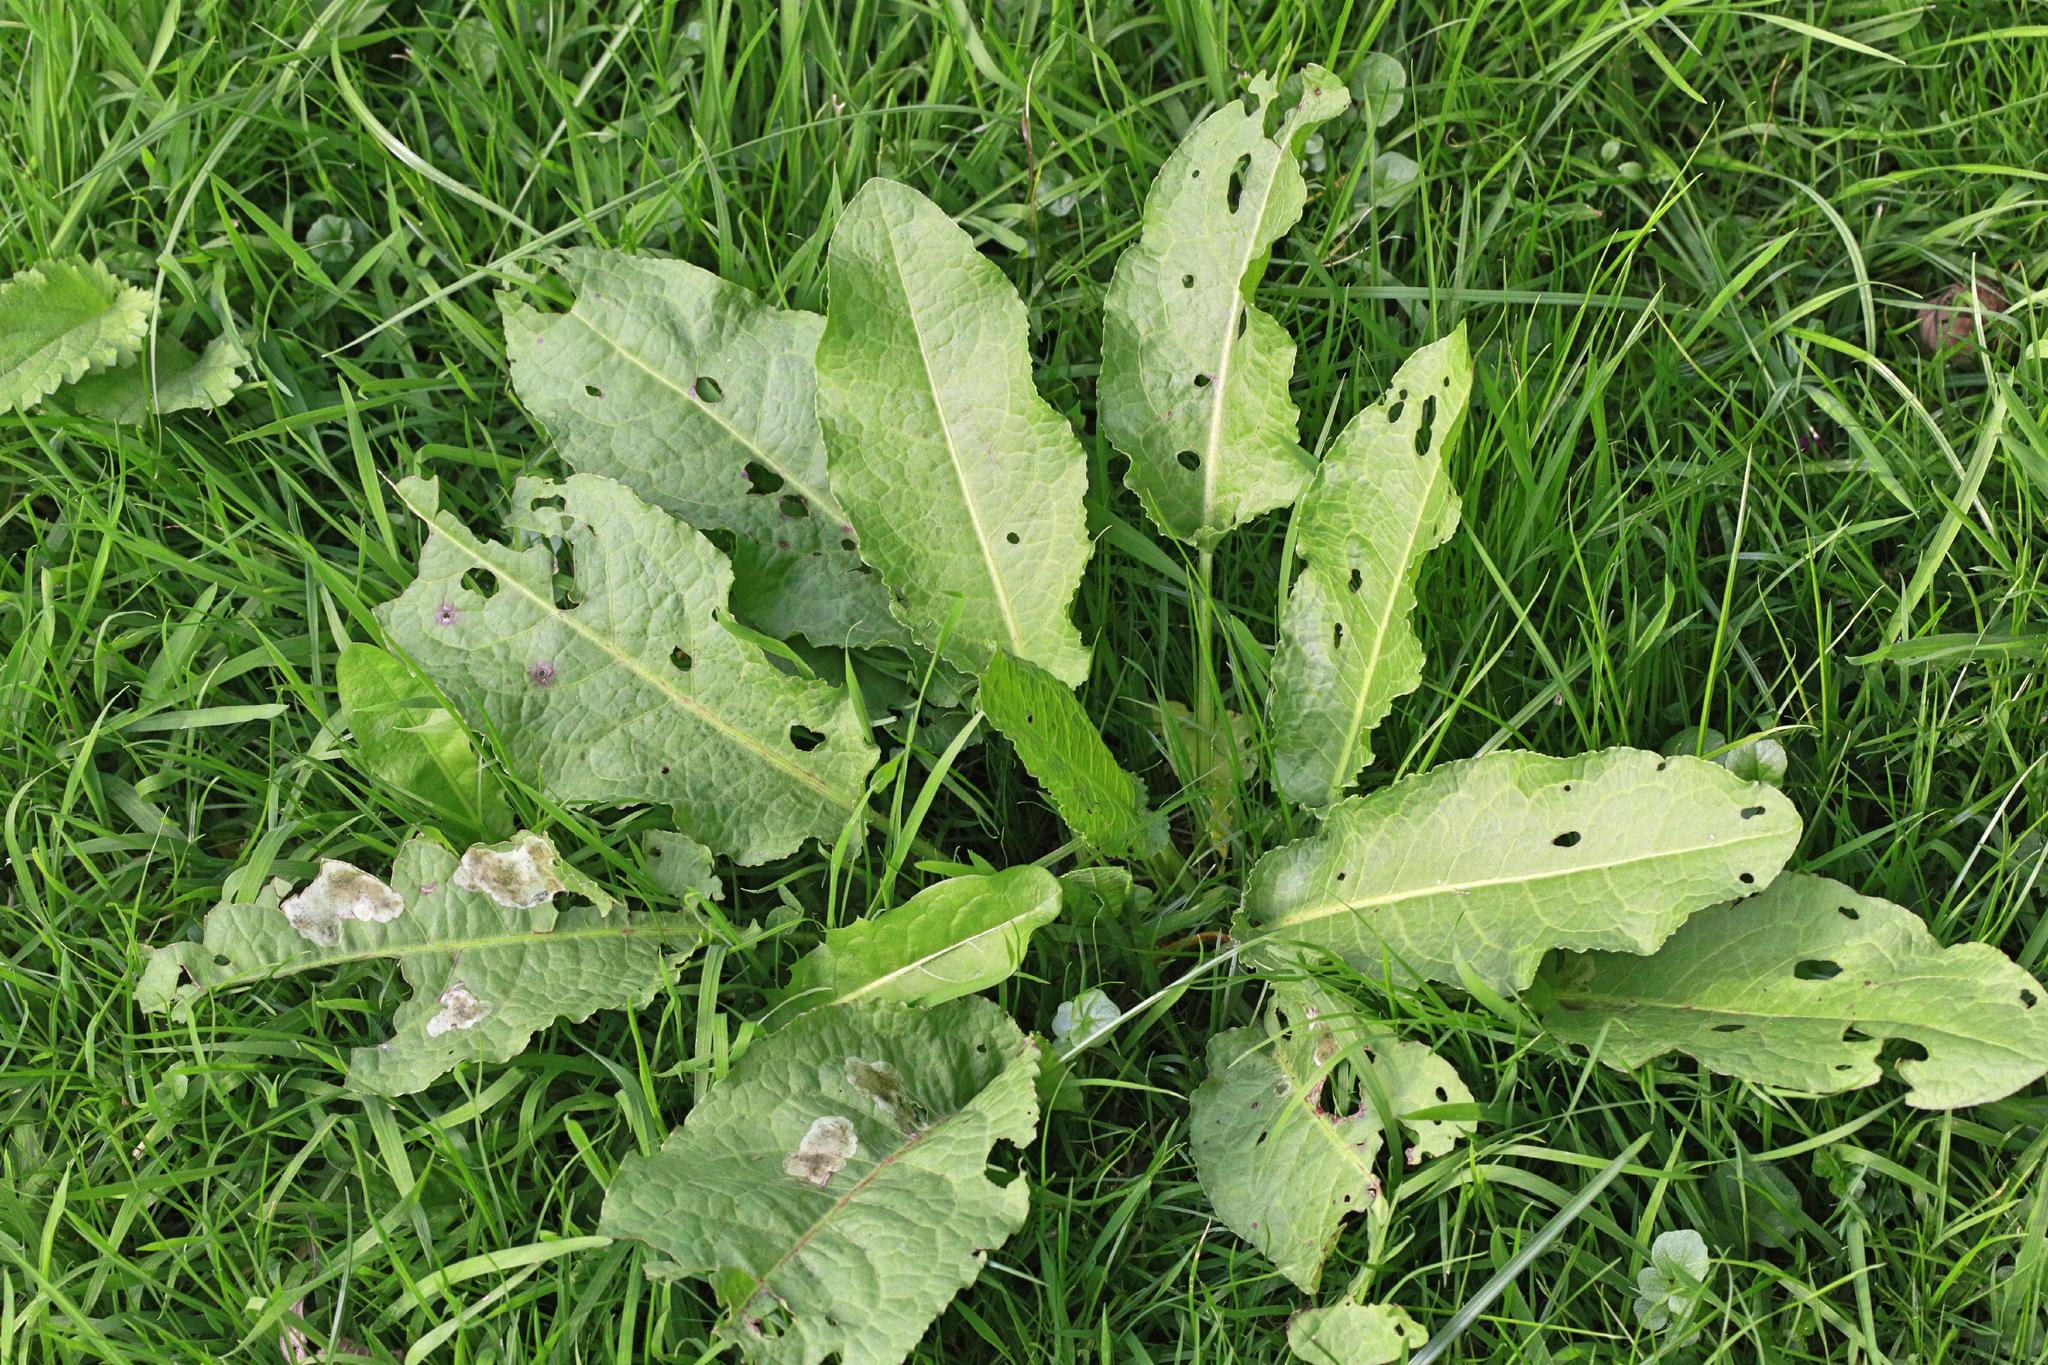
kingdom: Plantae
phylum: Tracheophyta
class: Magnoliopsida
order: Caryophyllales
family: Polygonaceae
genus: Rumex
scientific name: Rumex obtusifolius
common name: Bitter dock
